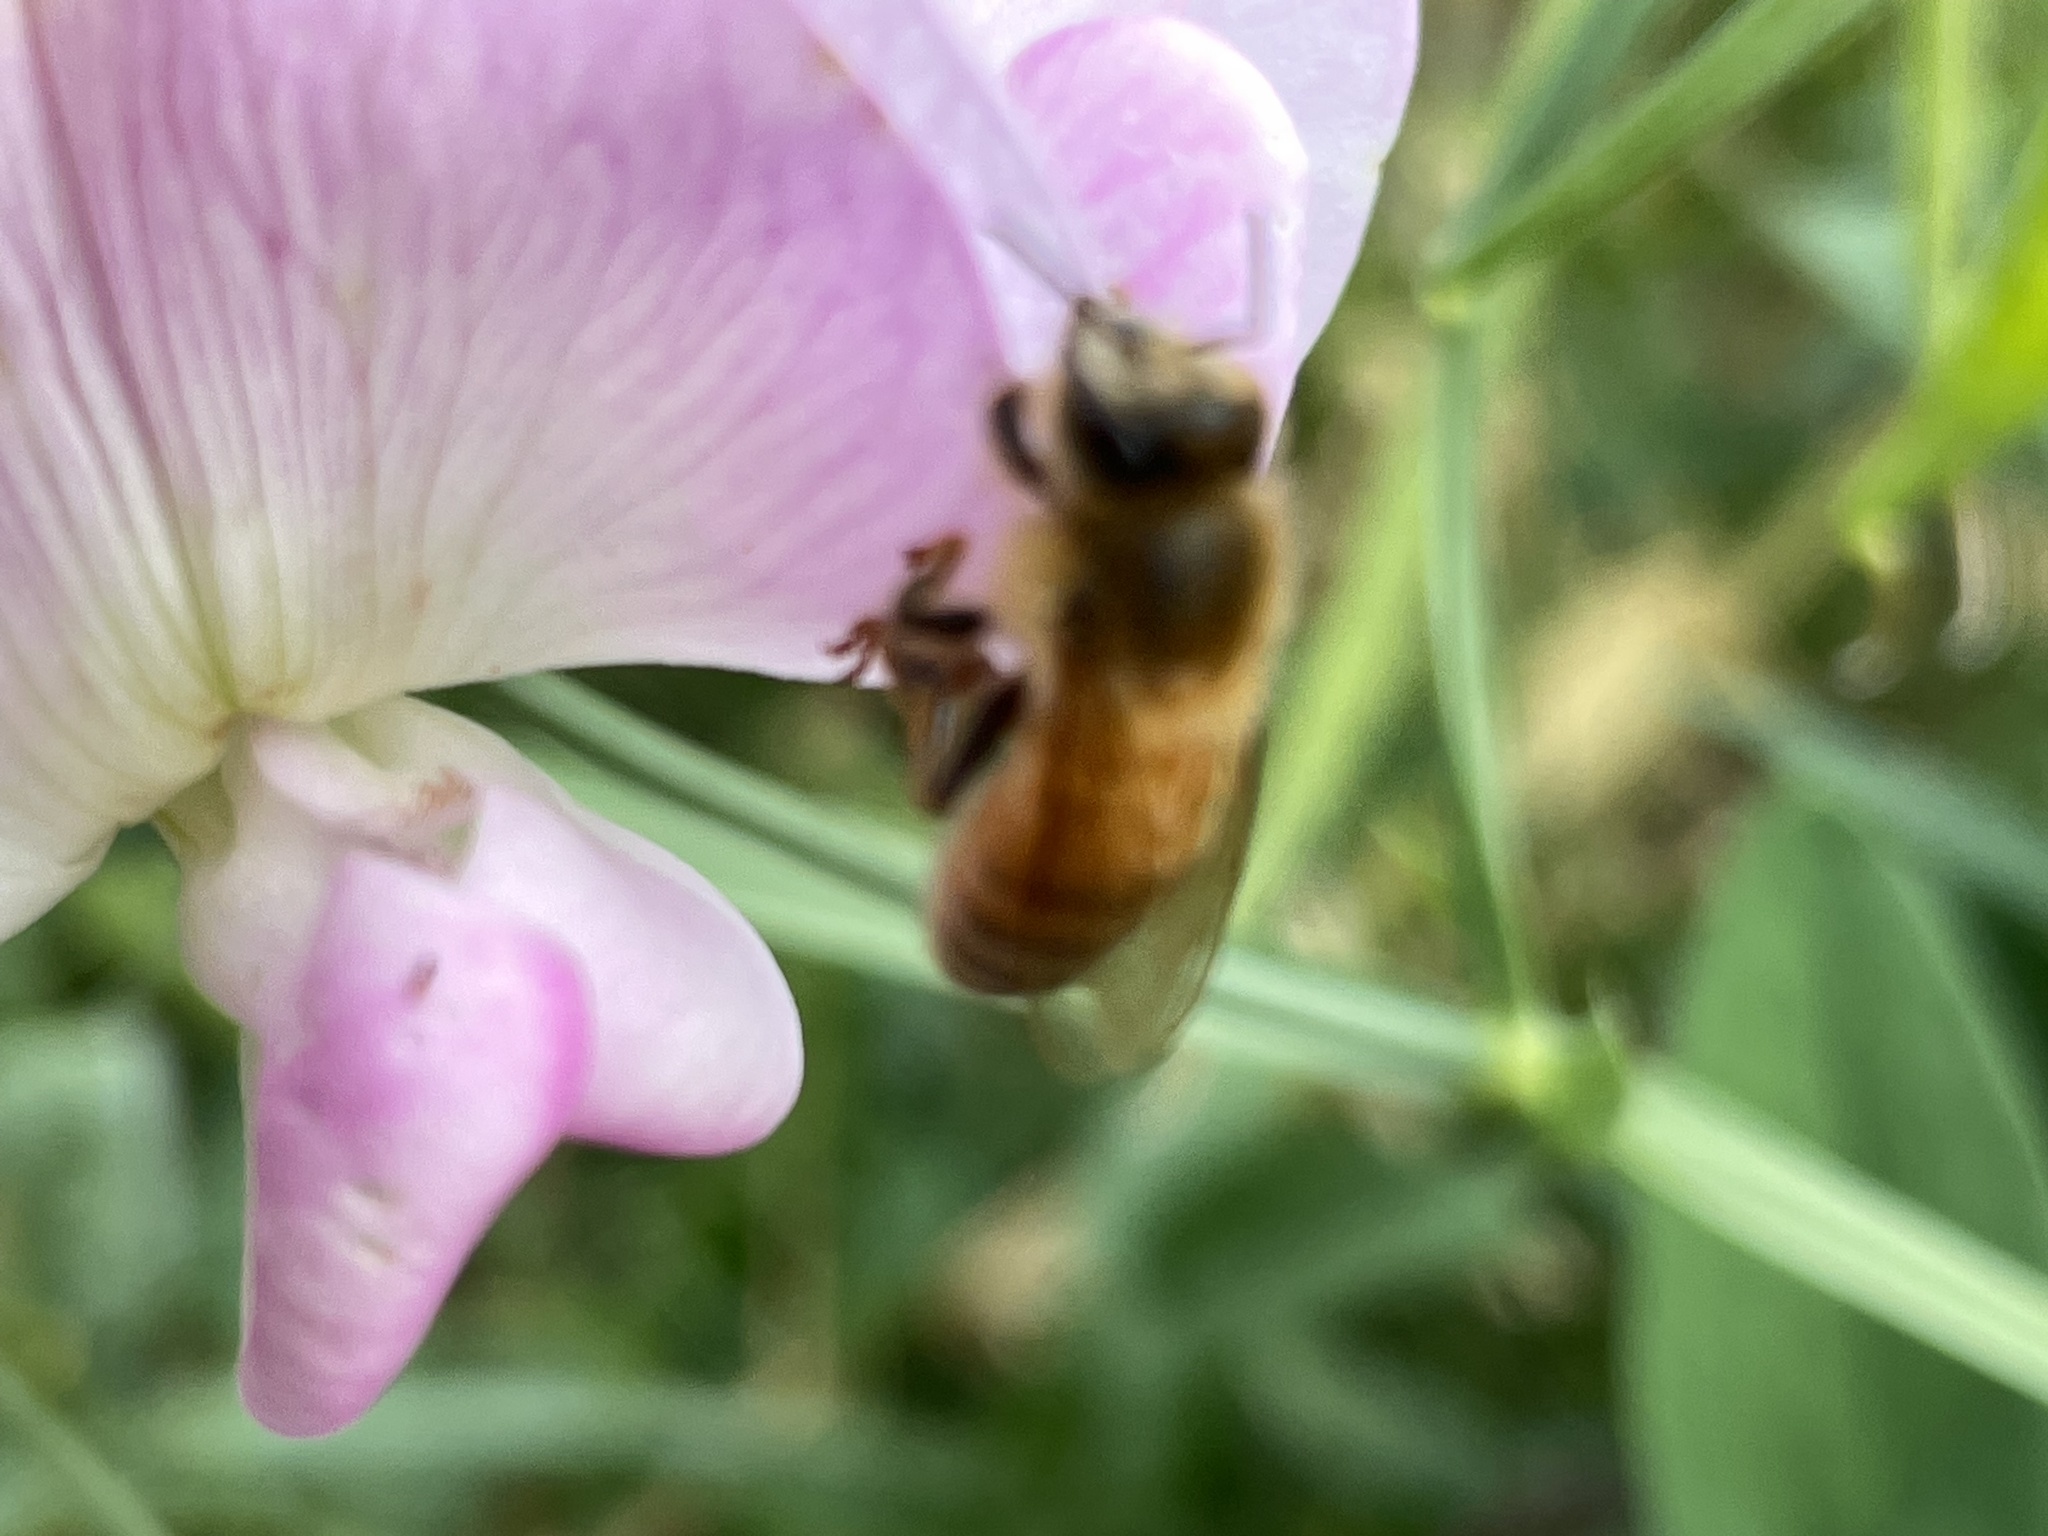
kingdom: Animalia
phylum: Arthropoda
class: Insecta
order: Hymenoptera
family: Apidae
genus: Apis
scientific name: Apis mellifera
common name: Honey bee
